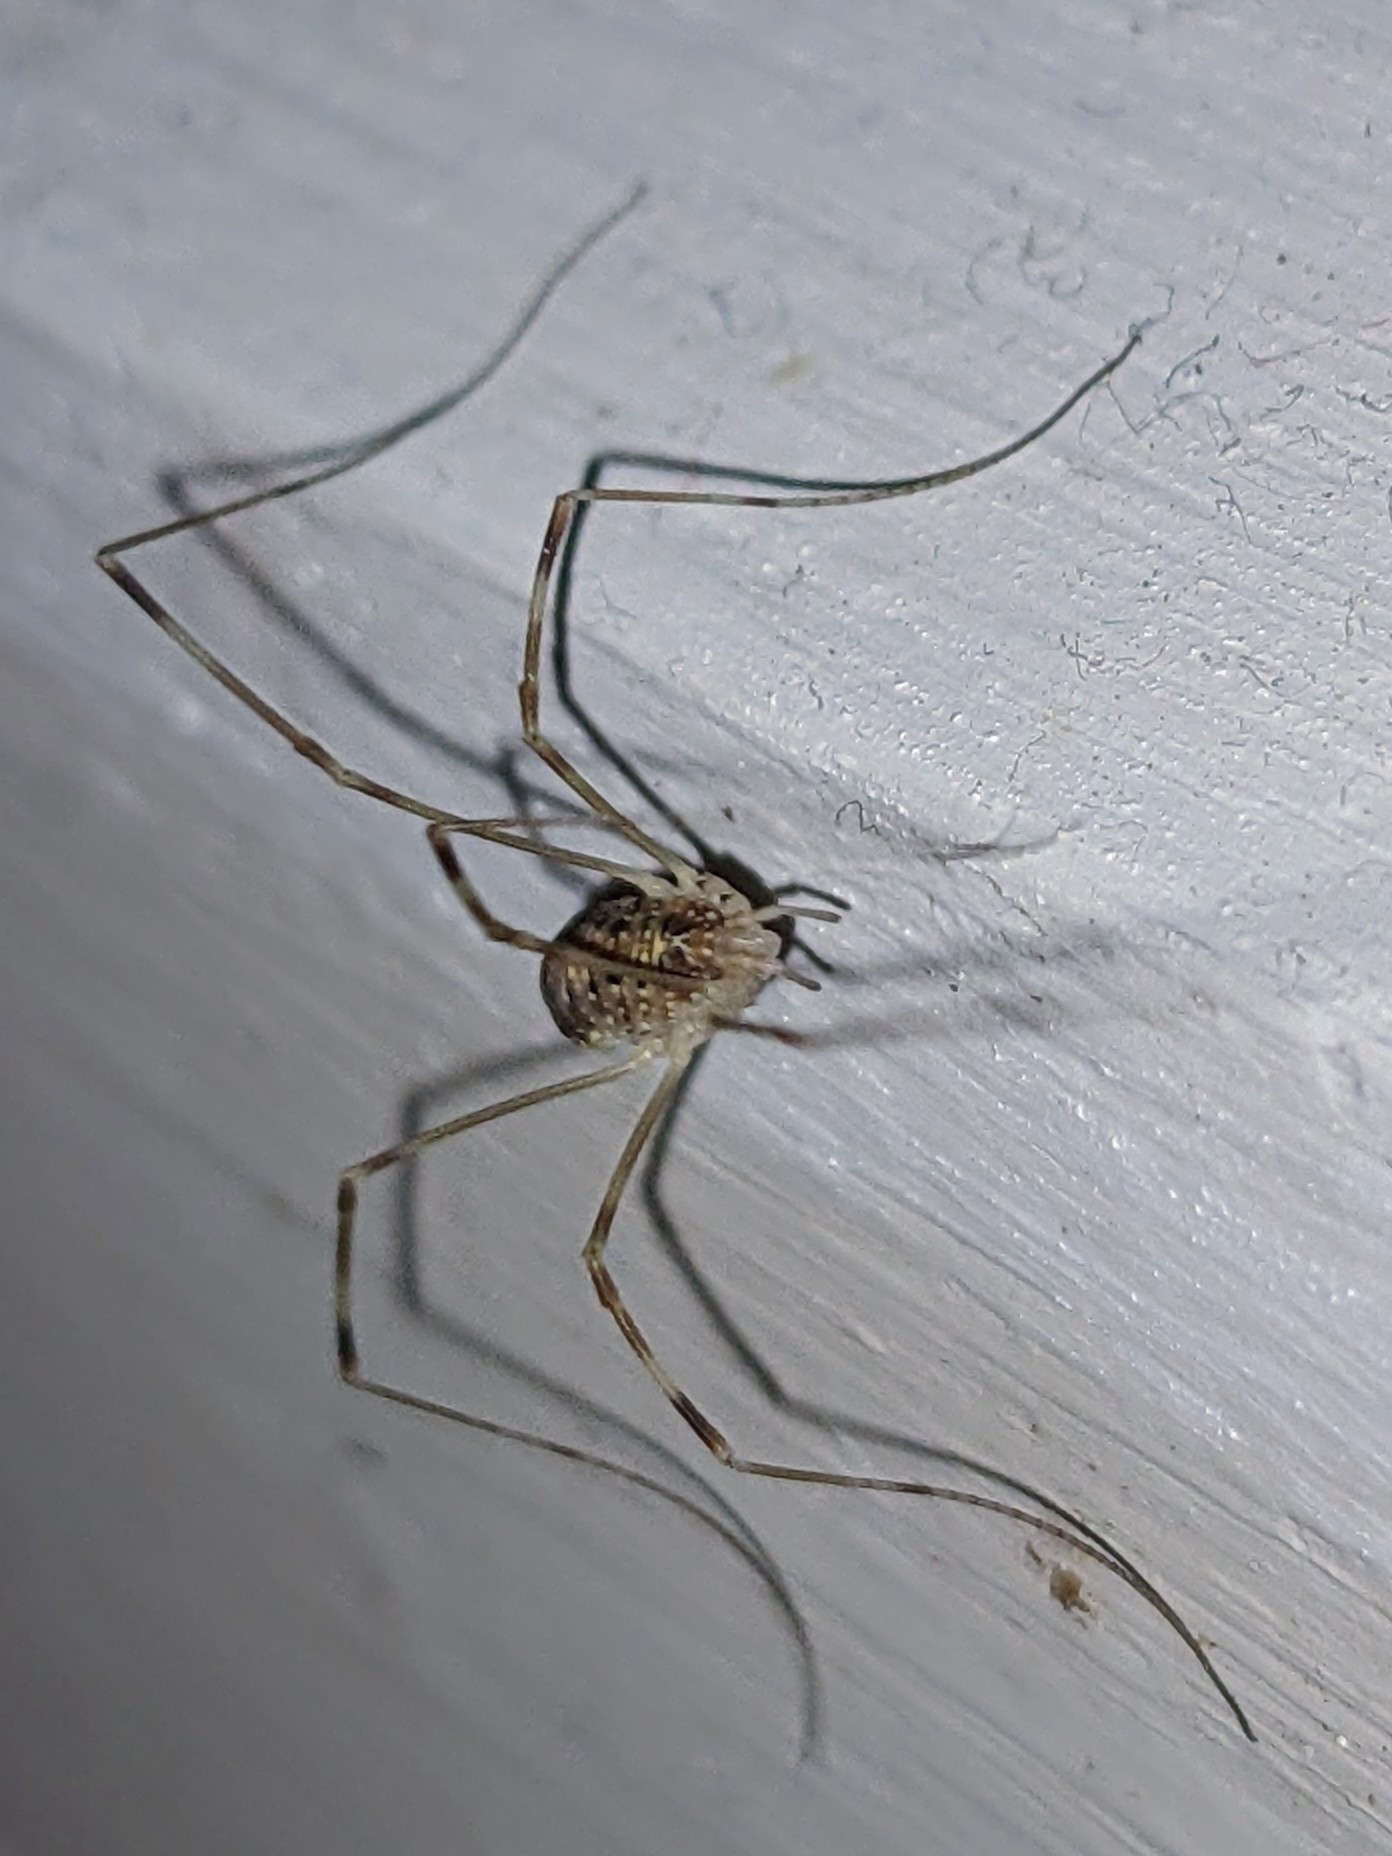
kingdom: Animalia
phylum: Arthropoda
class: Arachnida
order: Opiliones
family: Phalangiidae
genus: Opilio
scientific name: Opilio canestrinii
